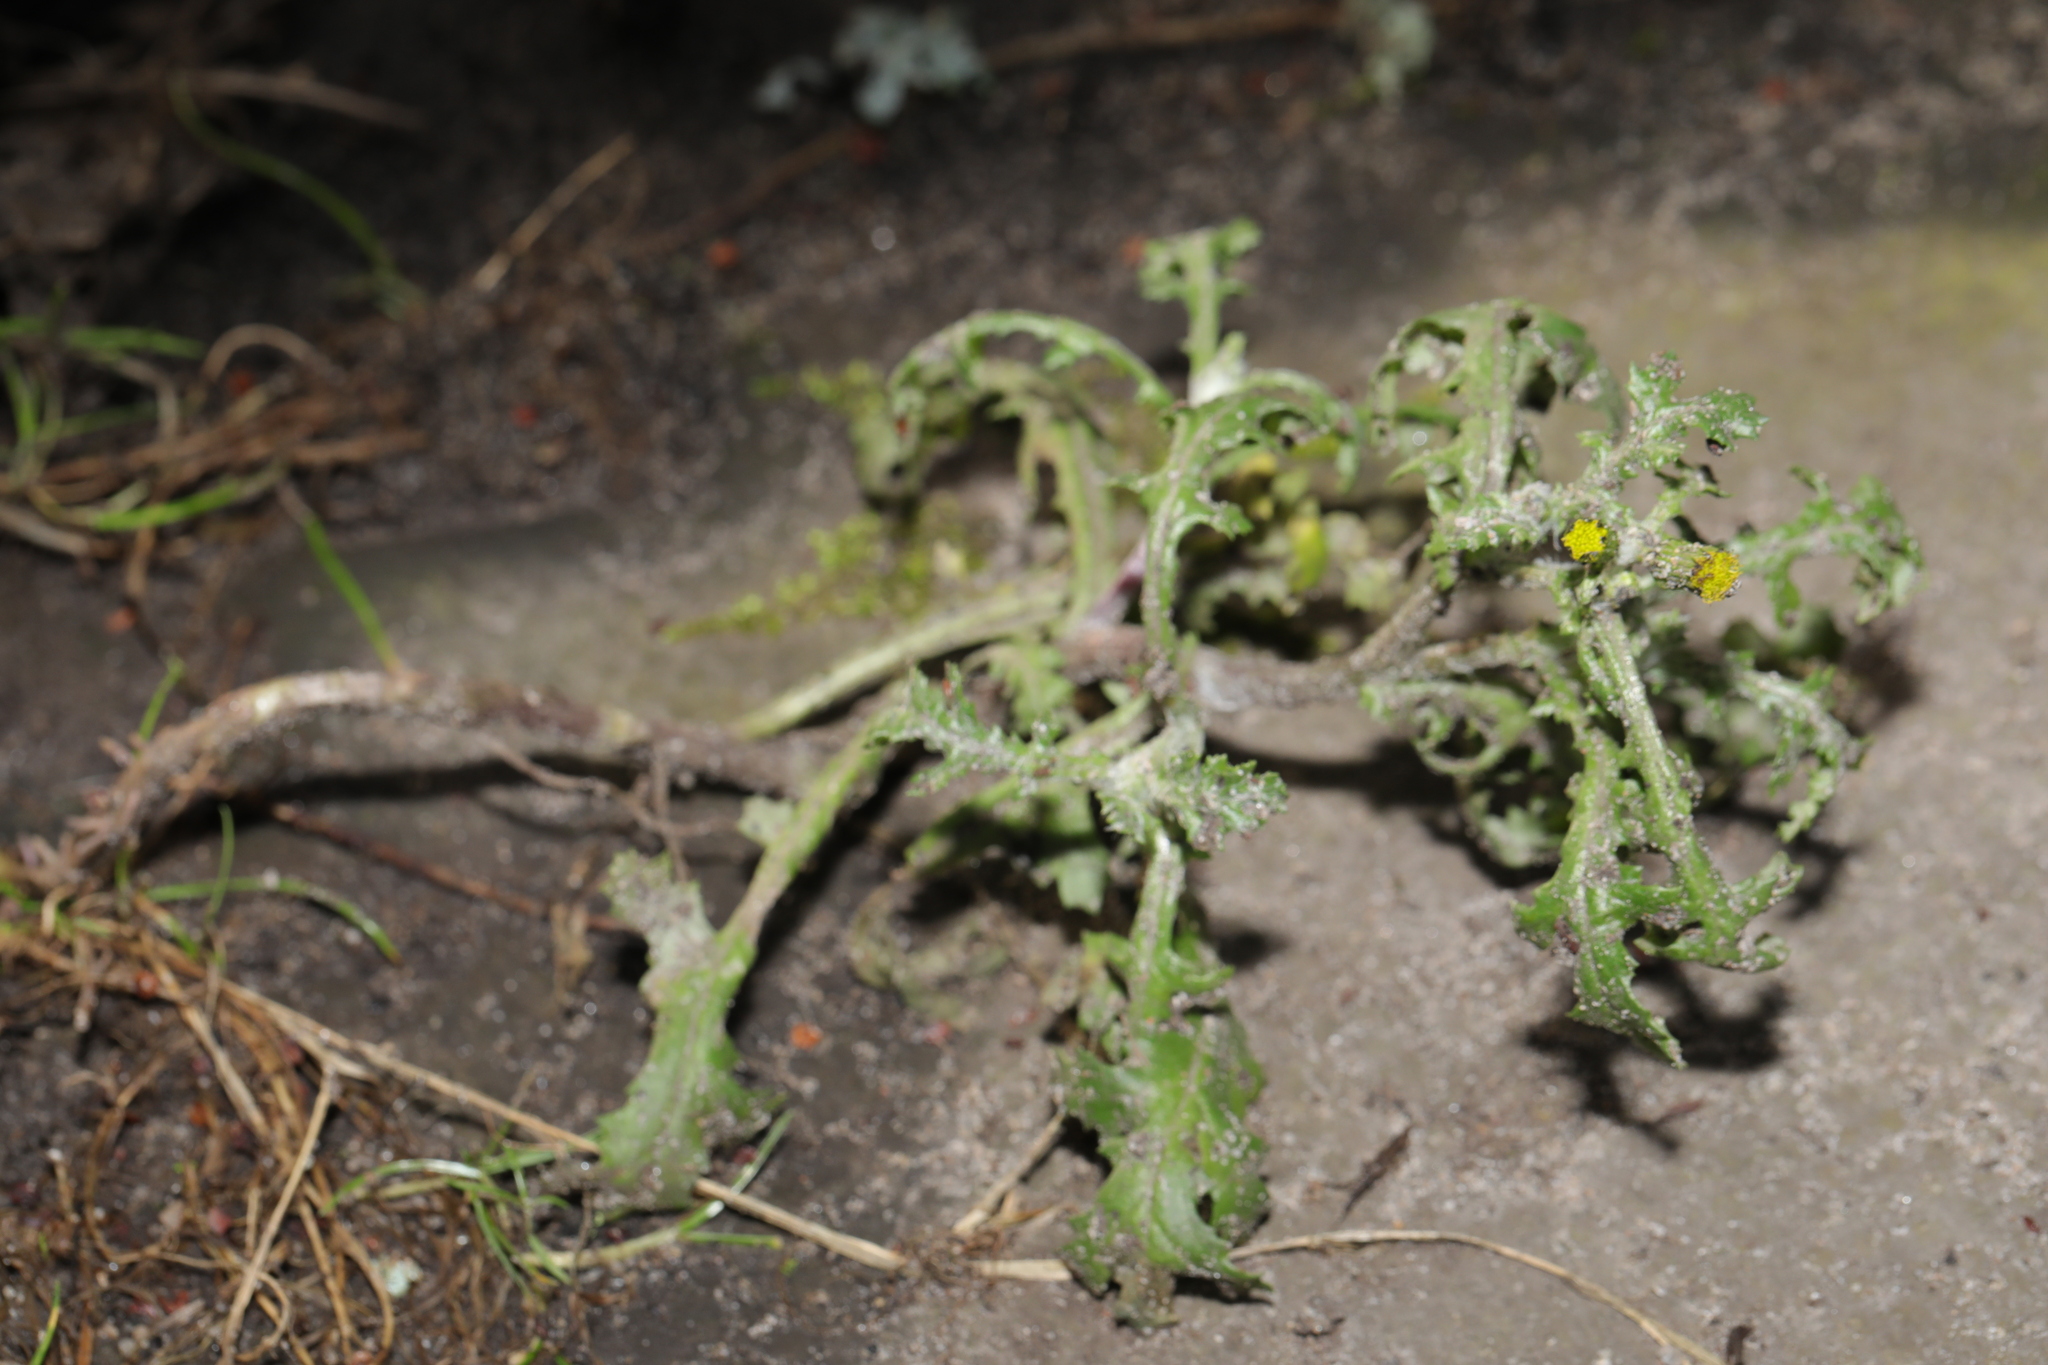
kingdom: Plantae
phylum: Tracheophyta
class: Magnoliopsida
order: Asterales
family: Asteraceae
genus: Senecio
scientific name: Senecio vulgaris
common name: Old-man-in-the-spring
